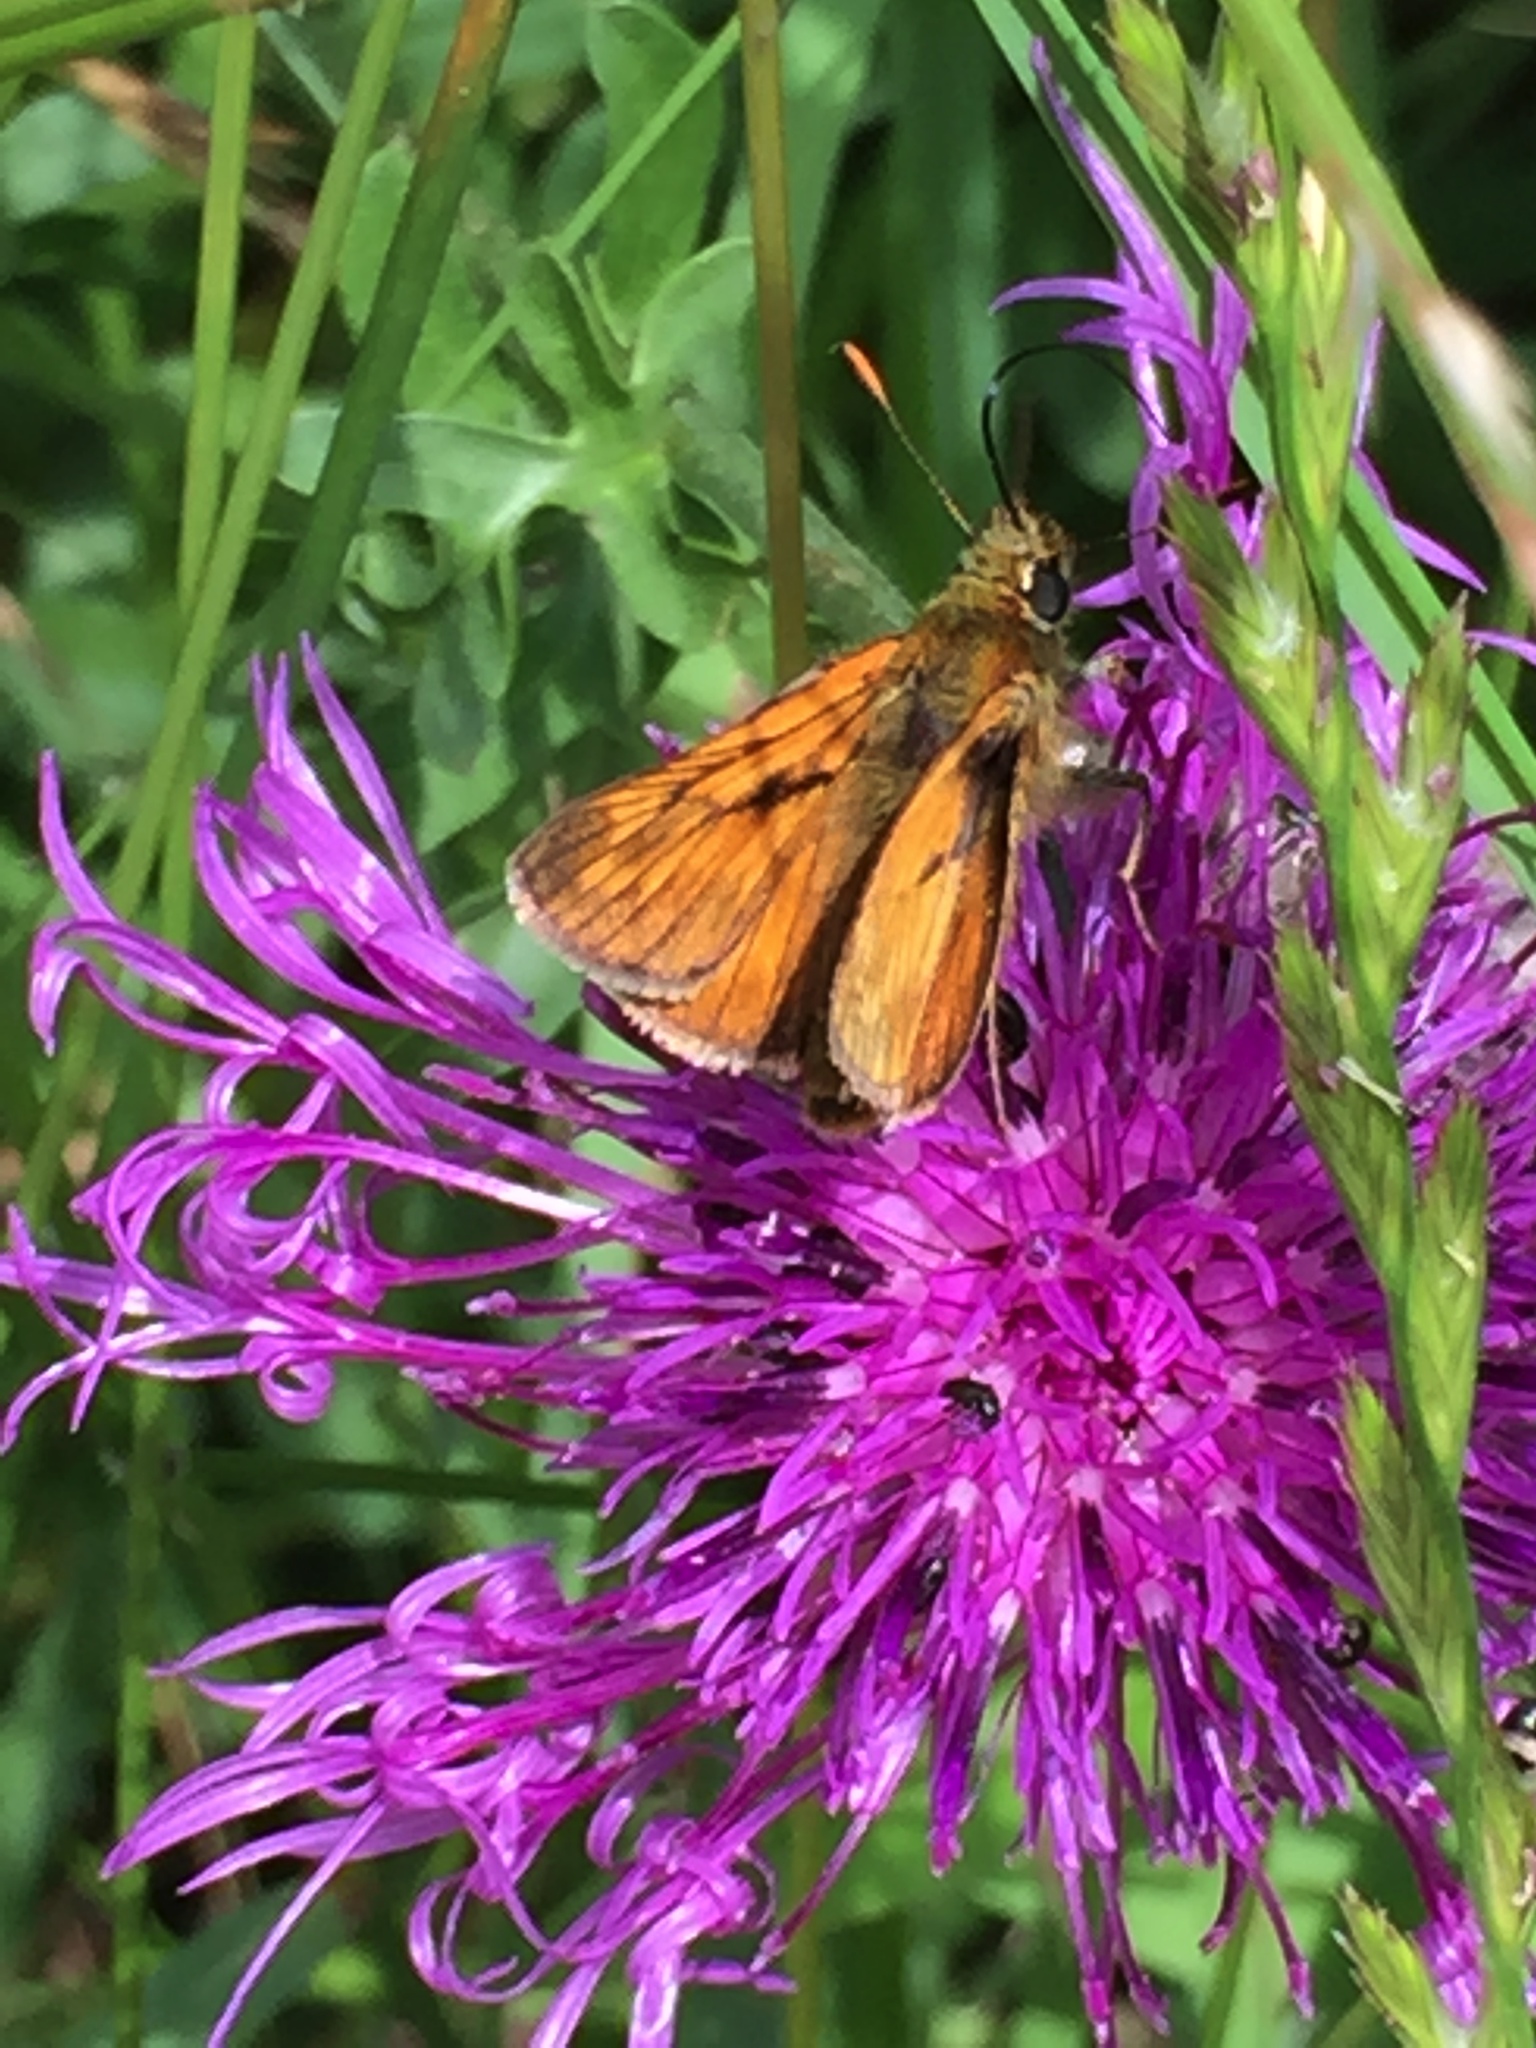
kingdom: Animalia
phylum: Arthropoda
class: Insecta
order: Lepidoptera
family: Hesperiidae
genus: Ochlodes
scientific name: Ochlodes venata
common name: Large skipper
